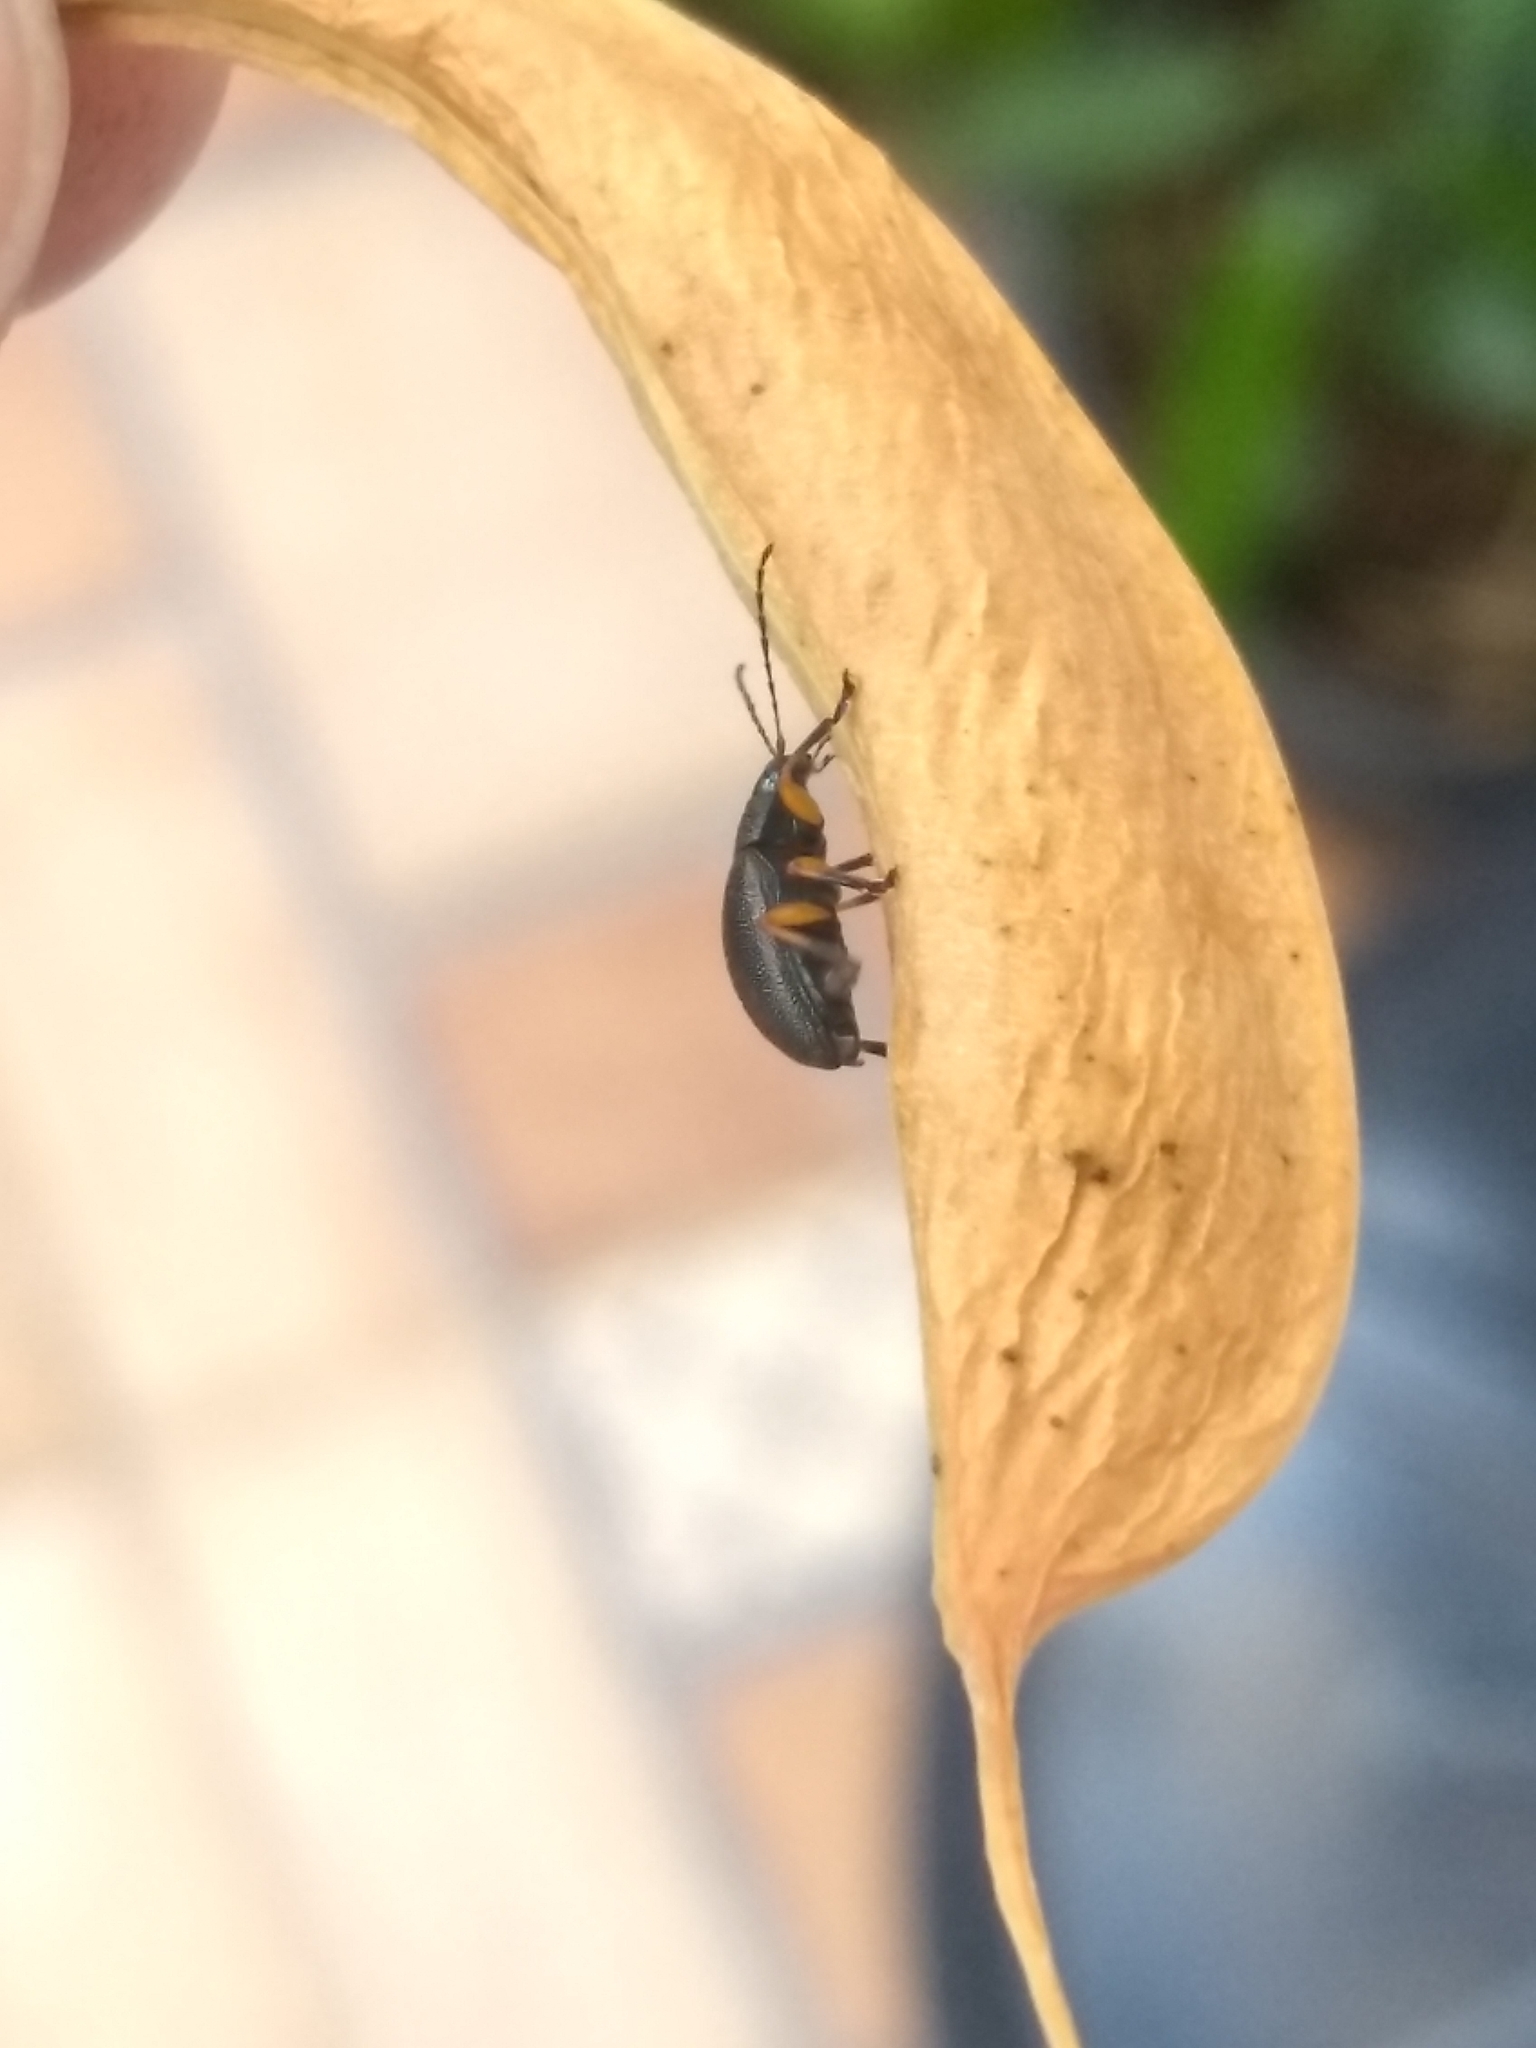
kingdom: Animalia
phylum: Arthropoda
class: Insecta
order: Coleoptera
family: Chrysomelidae
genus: Nodocolaspis
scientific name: Nodocolaspis
